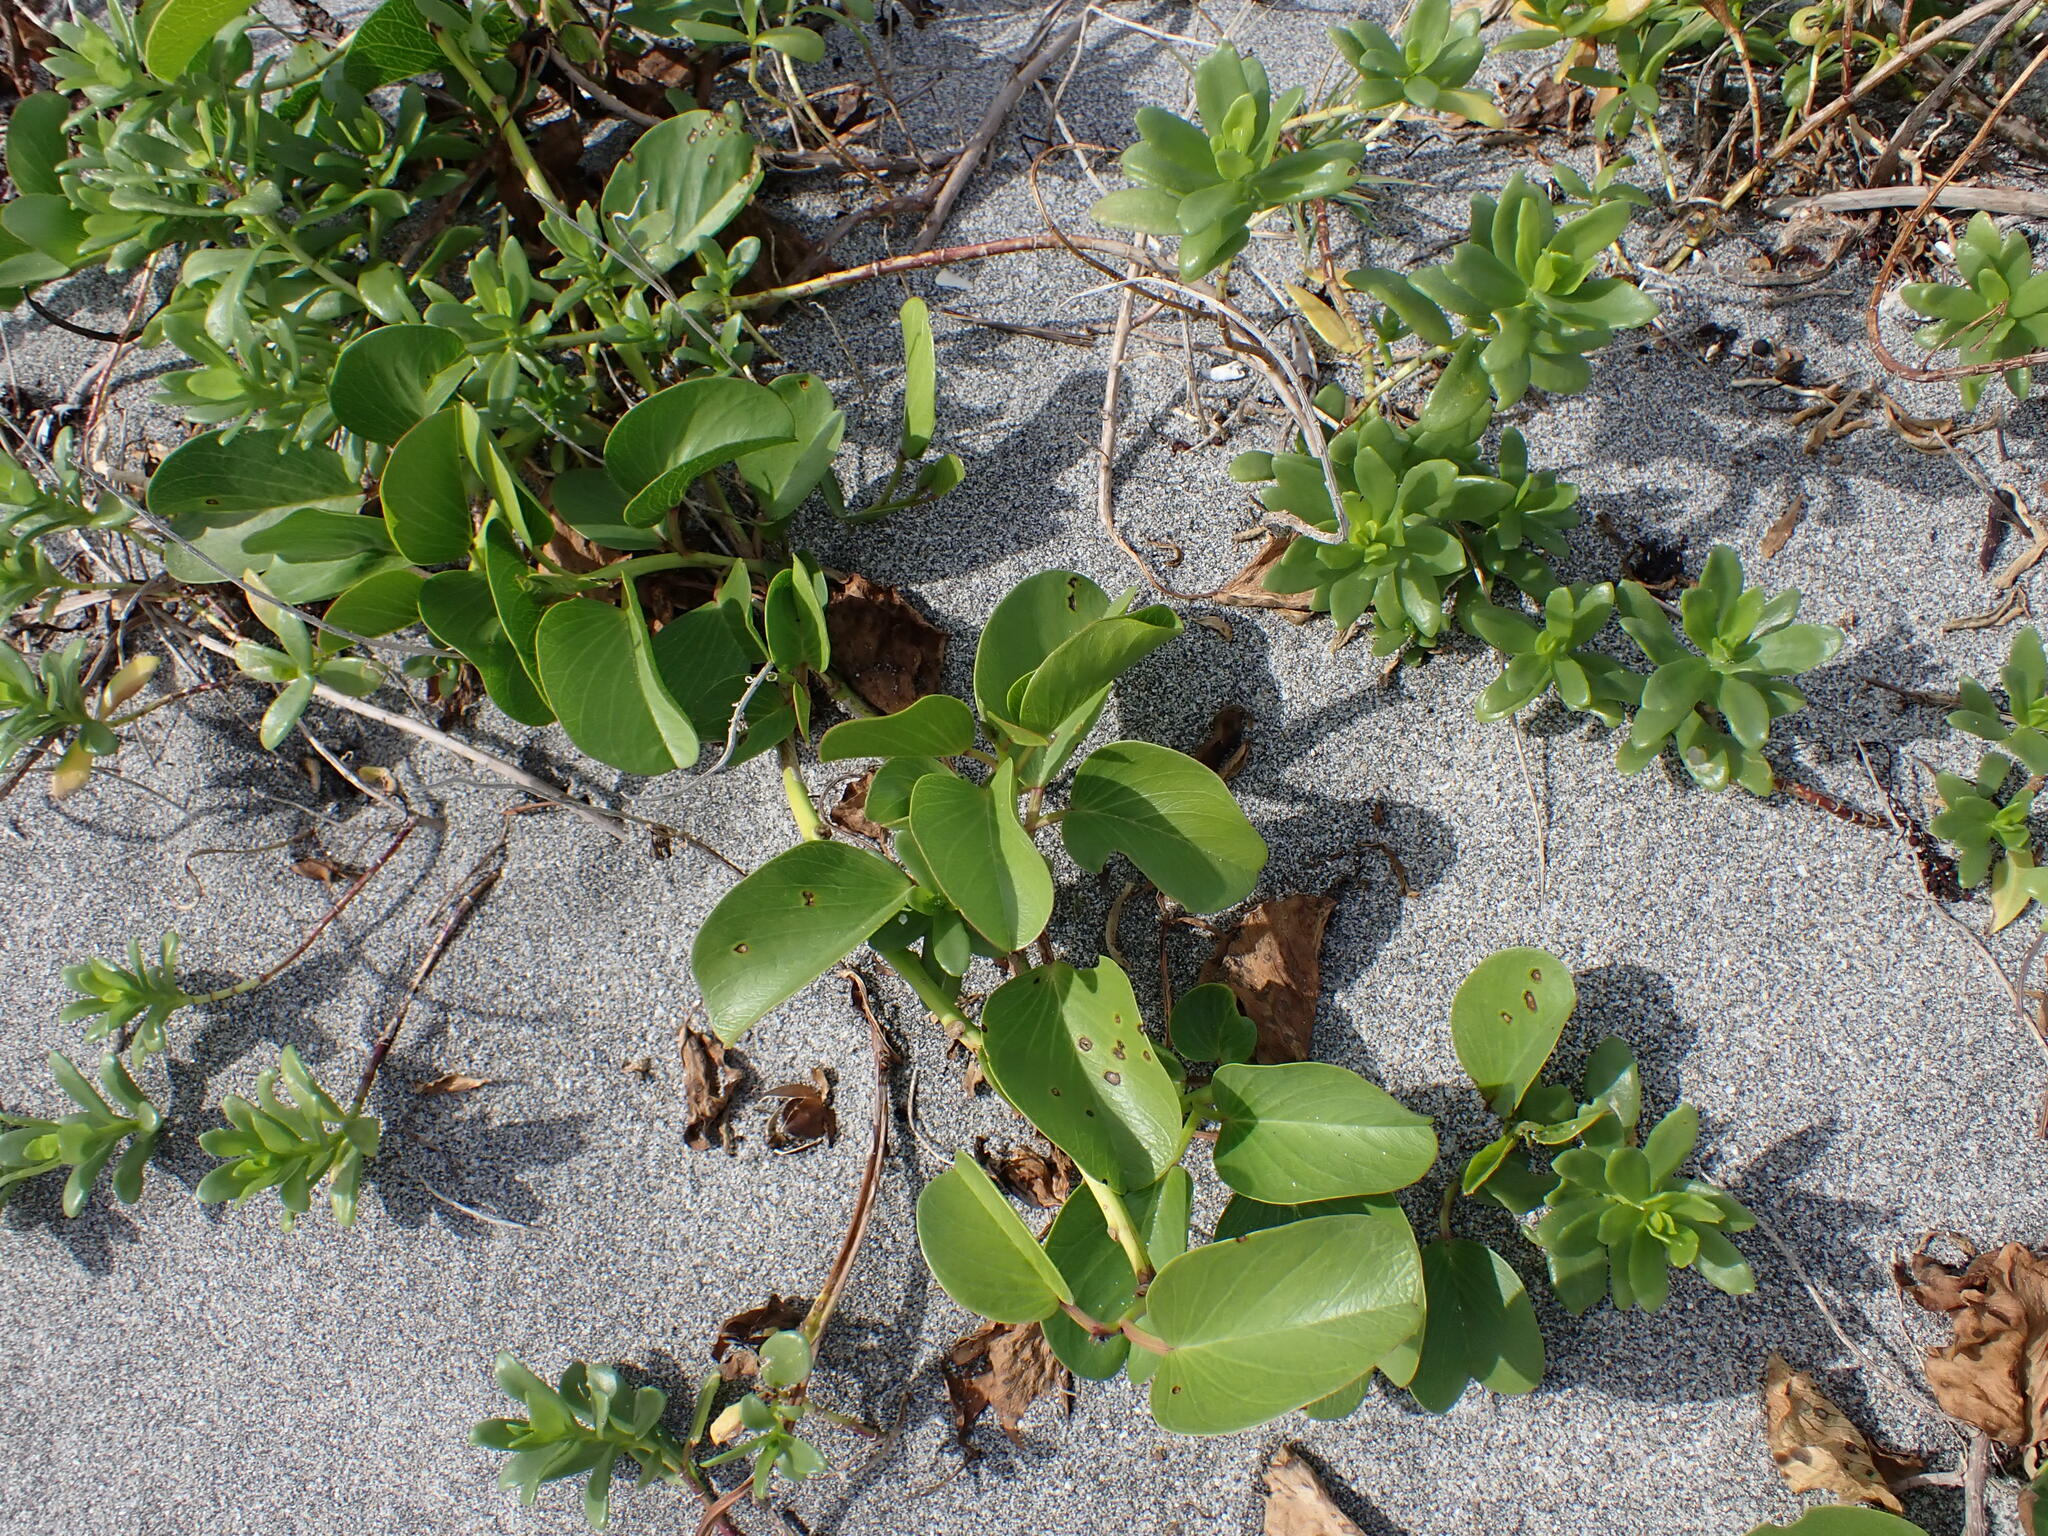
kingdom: Plantae
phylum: Tracheophyta
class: Magnoliopsida
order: Solanales
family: Convolvulaceae
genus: Ipomoea
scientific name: Ipomoea pes-caprae
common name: Beach morning glory
